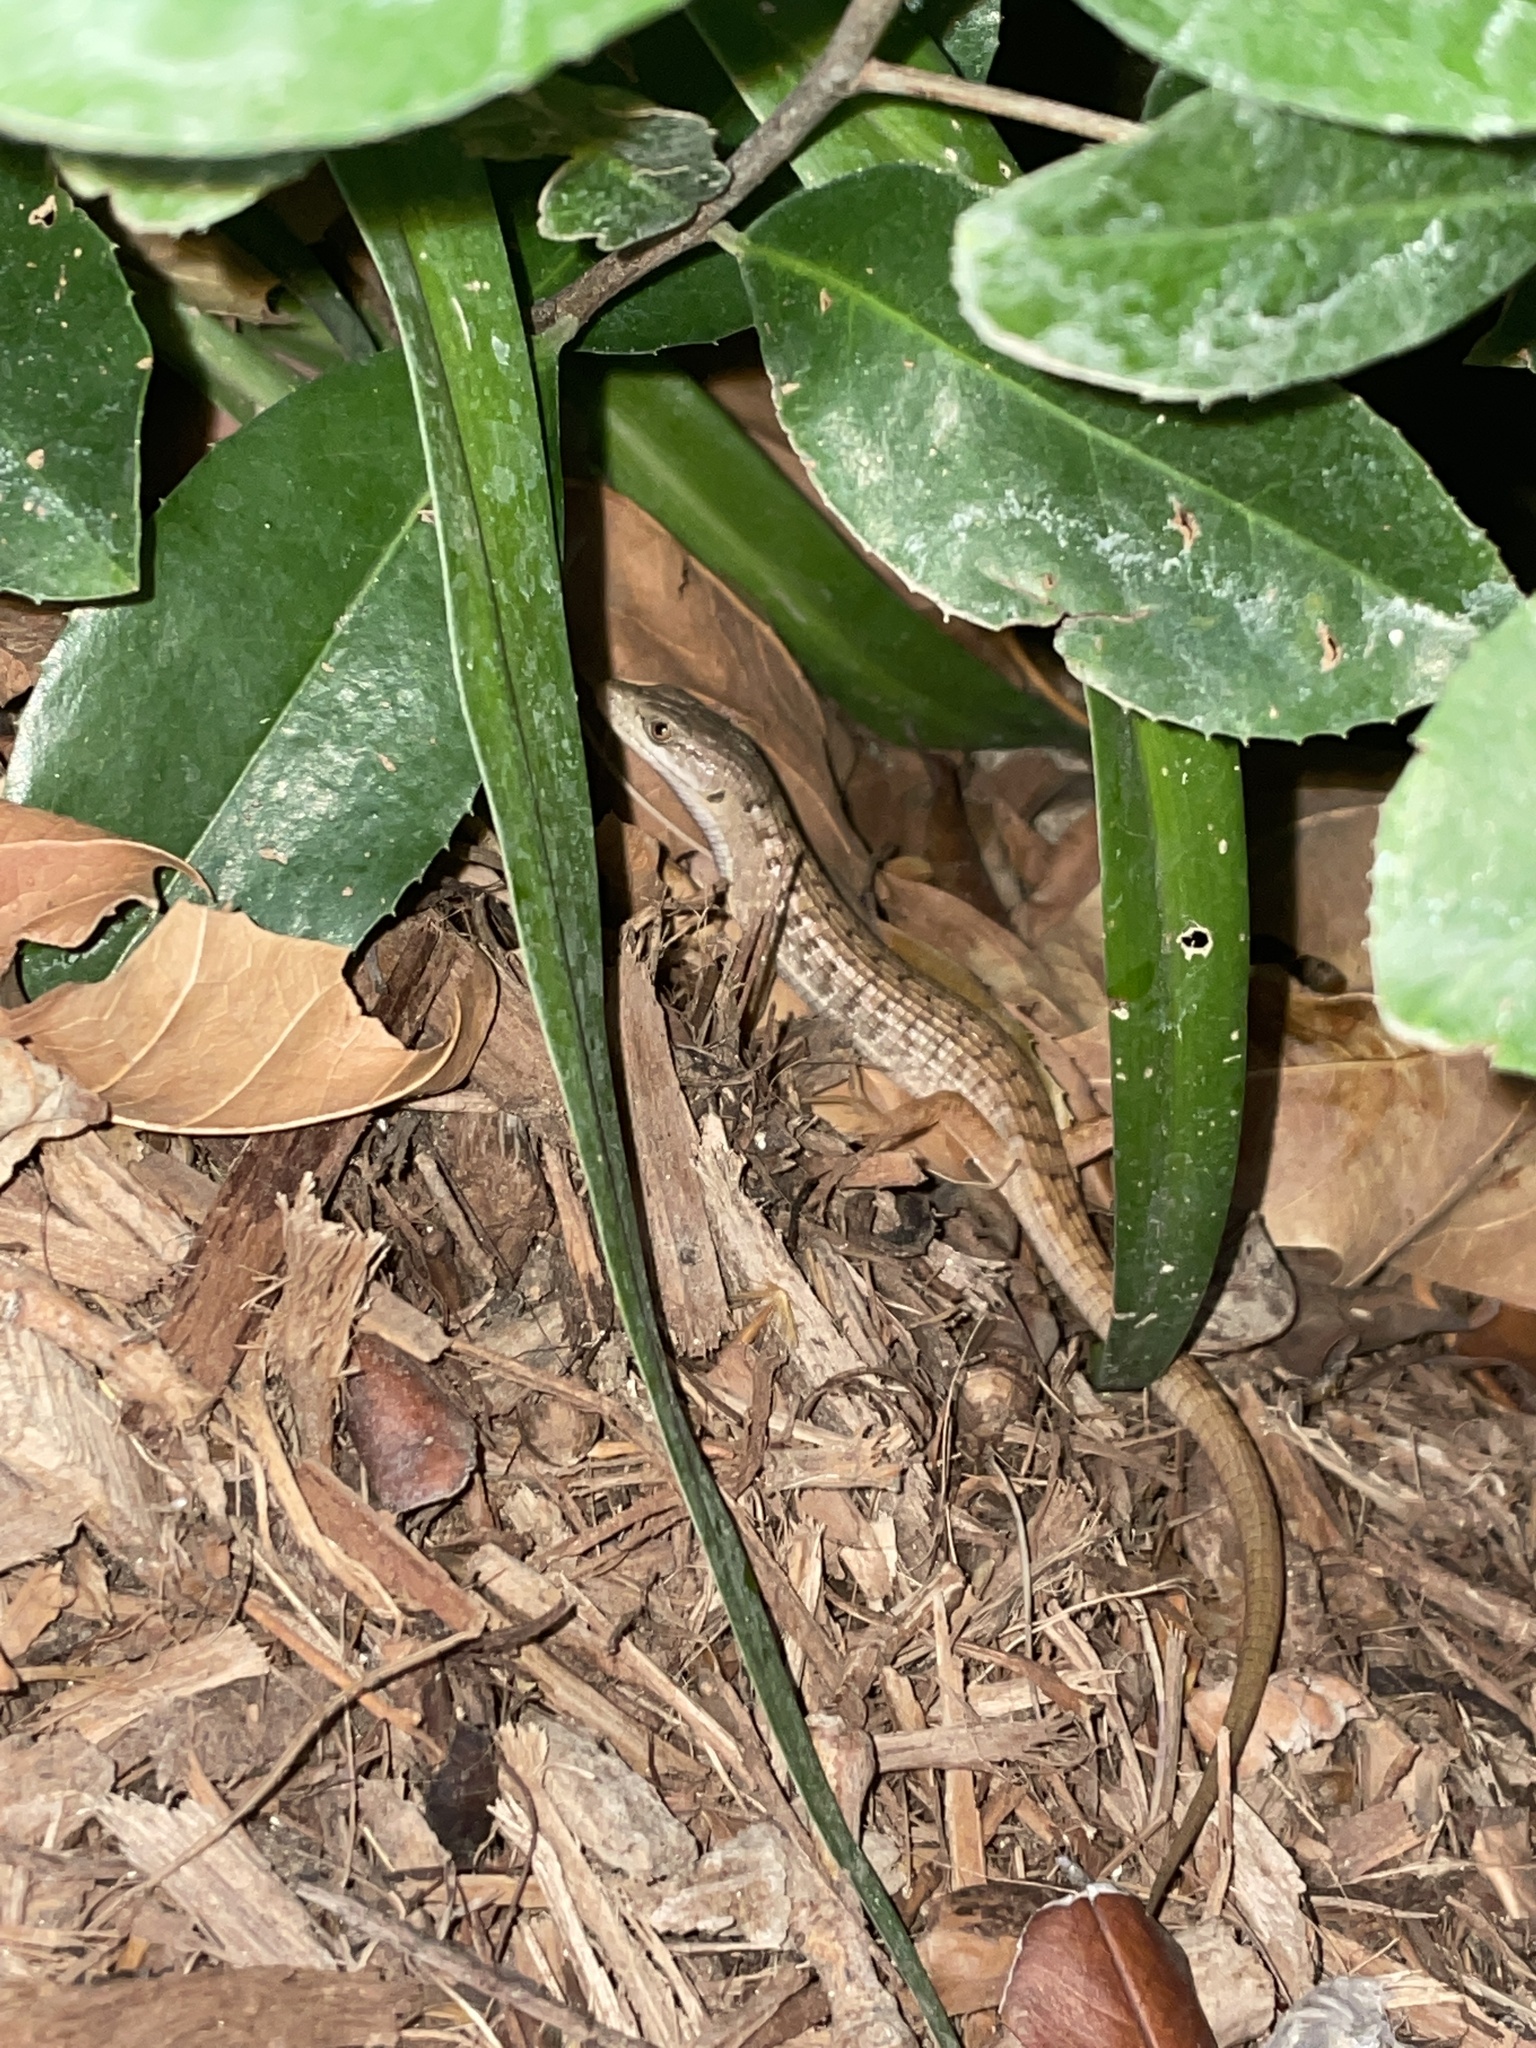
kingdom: Animalia
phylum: Chordata
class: Squamata
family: Anguidae
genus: Elgaria
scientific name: Elgaria multicarinata
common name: Southern alligator lizard
